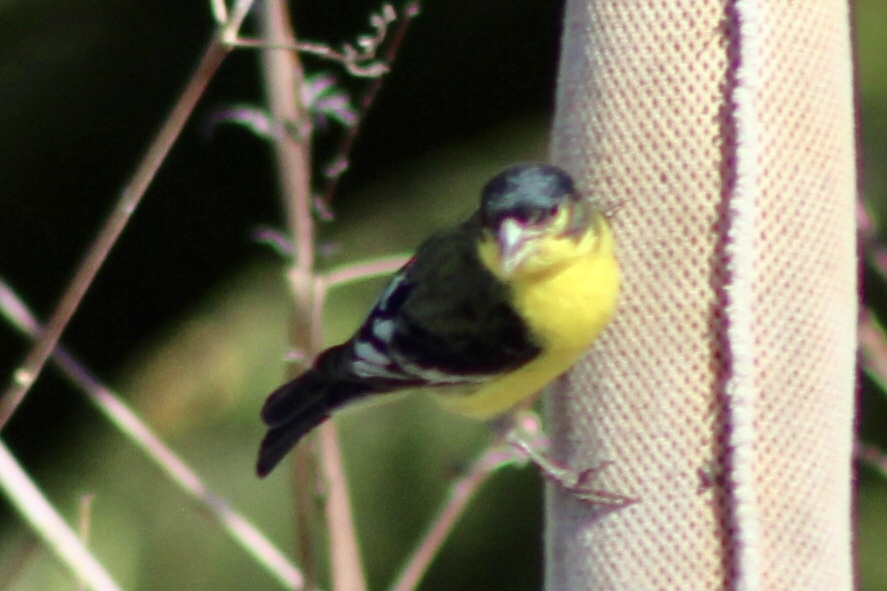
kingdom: Animalia
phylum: Chordata
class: Aves
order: Passeriformes
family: Fringillidae
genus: Spinus
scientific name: Spinus psaltria
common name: Lesser goldfinch
